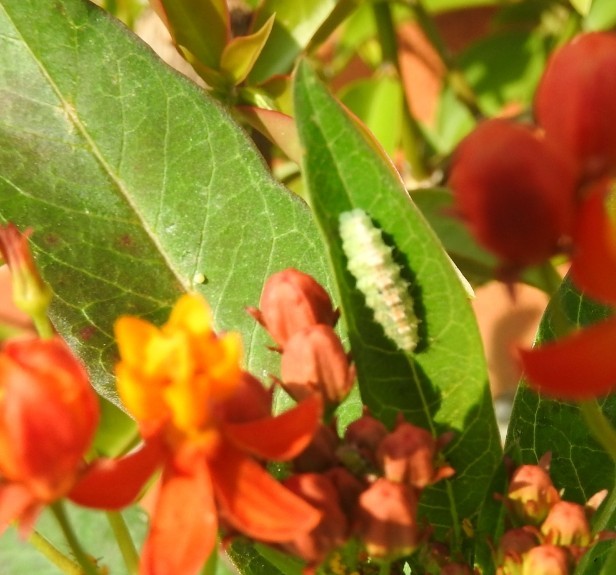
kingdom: Animalia
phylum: Arthropoda
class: Insecta
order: Lepidoptera
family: Nymphalidae
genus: Danaus
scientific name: Danaus plexippus
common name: Monarch
